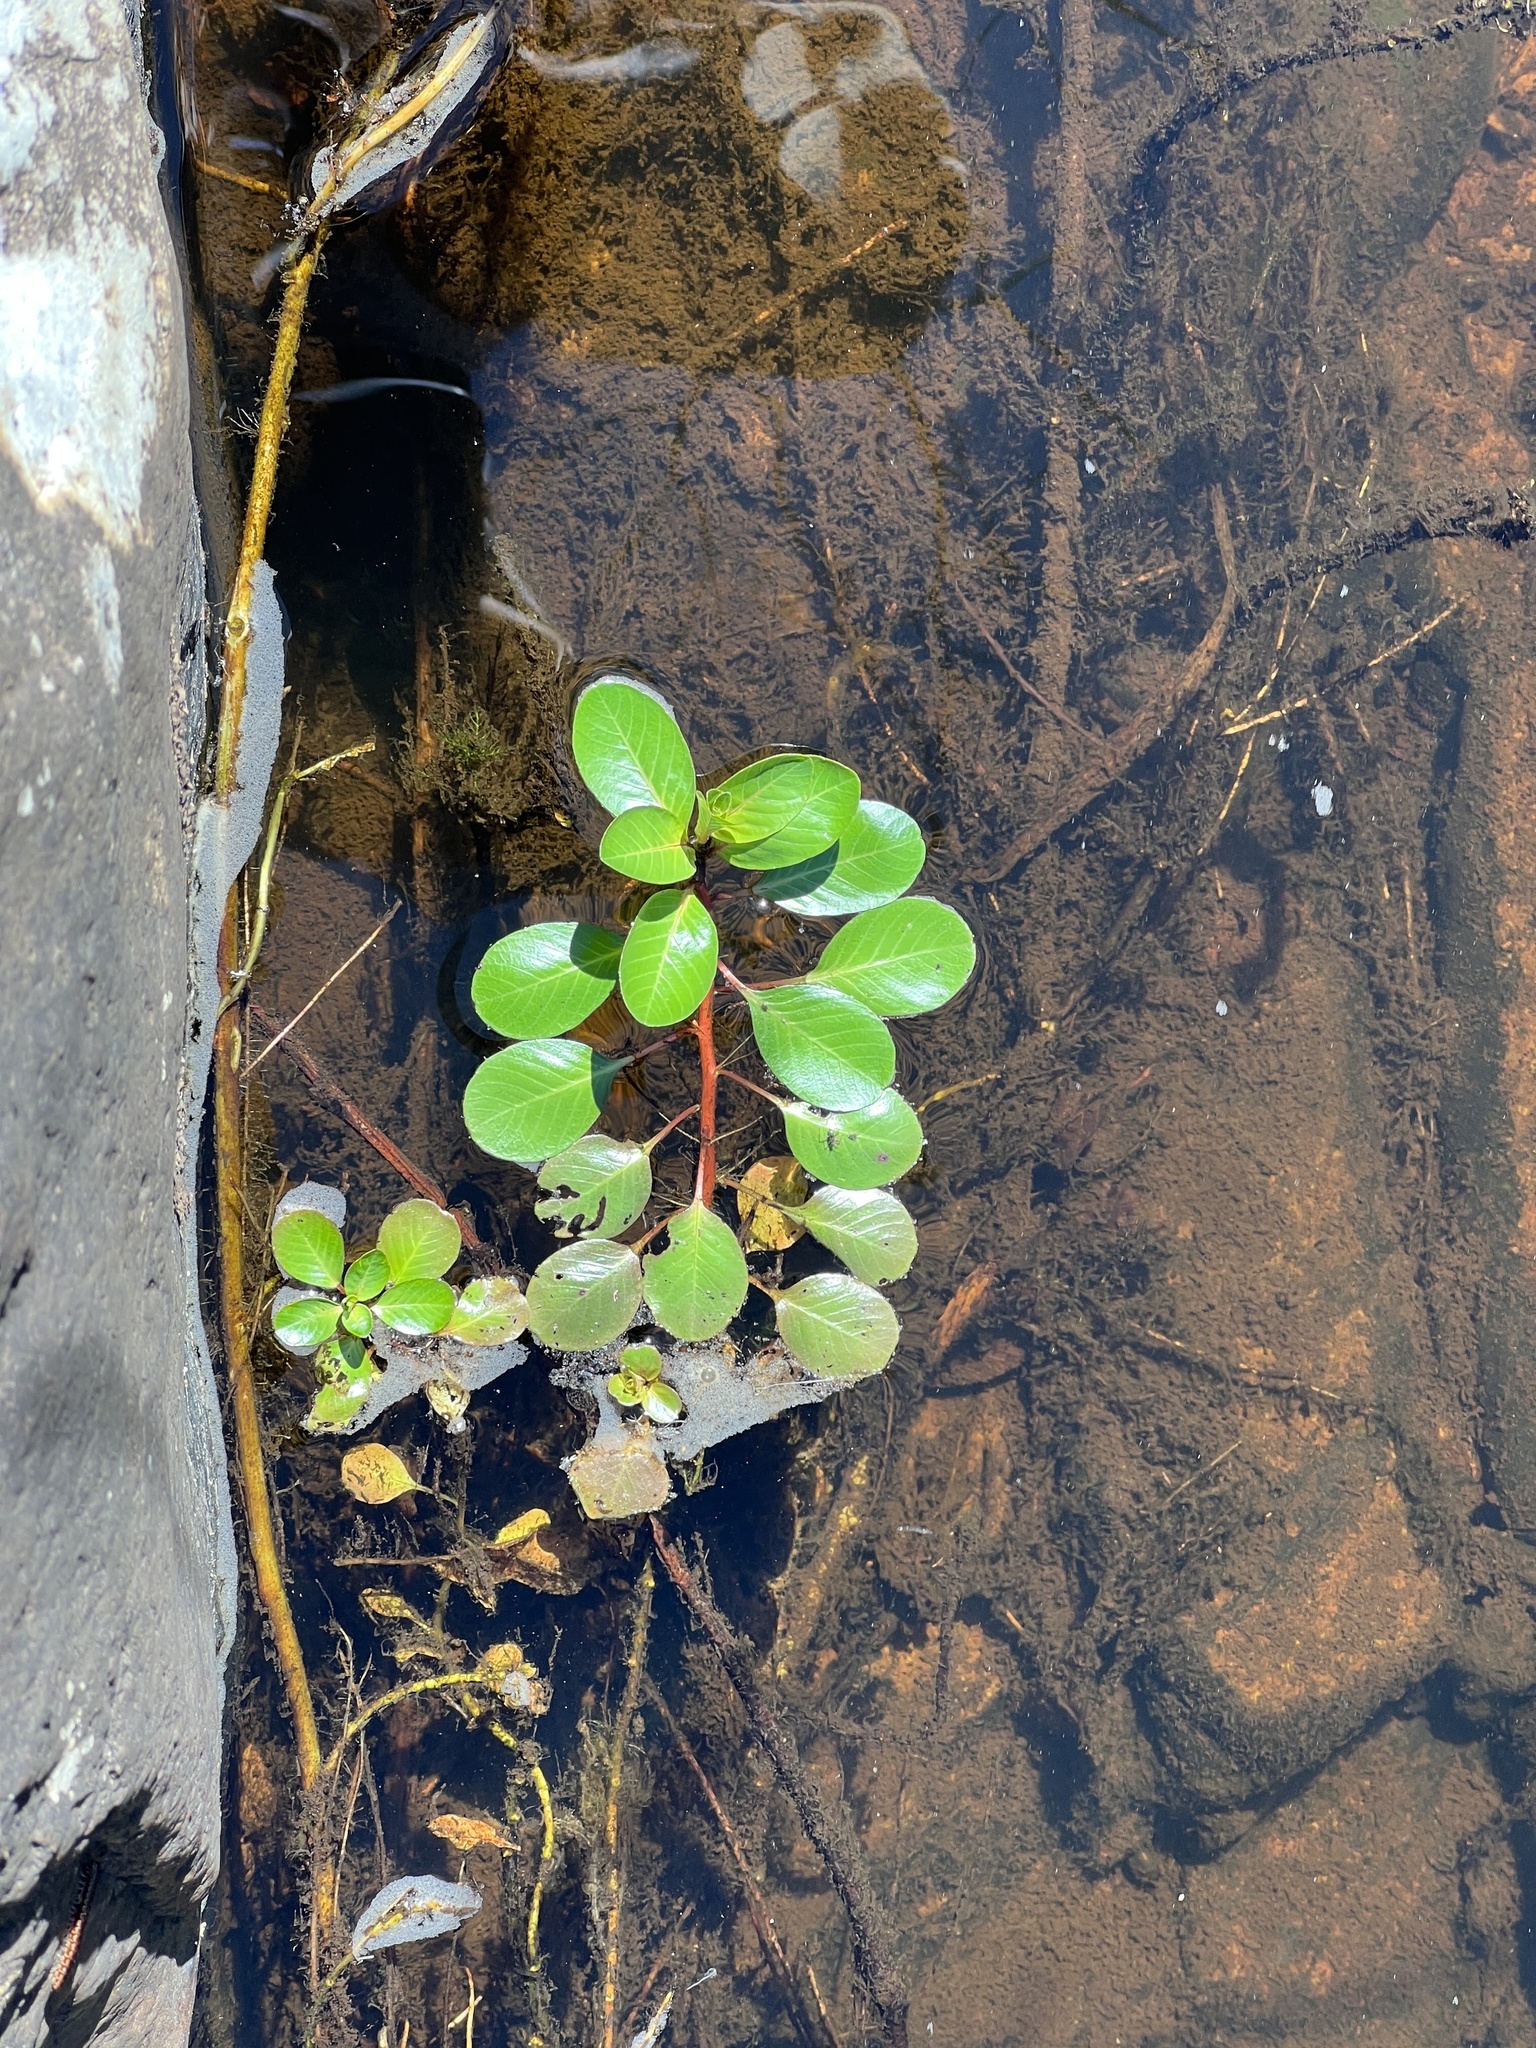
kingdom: Plantae
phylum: Tracheophyta
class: Magnoliopsida
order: Myrtales
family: Onagraceae
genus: Ludwigia
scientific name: Ludwigia peploides
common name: Floating primrose-willow
